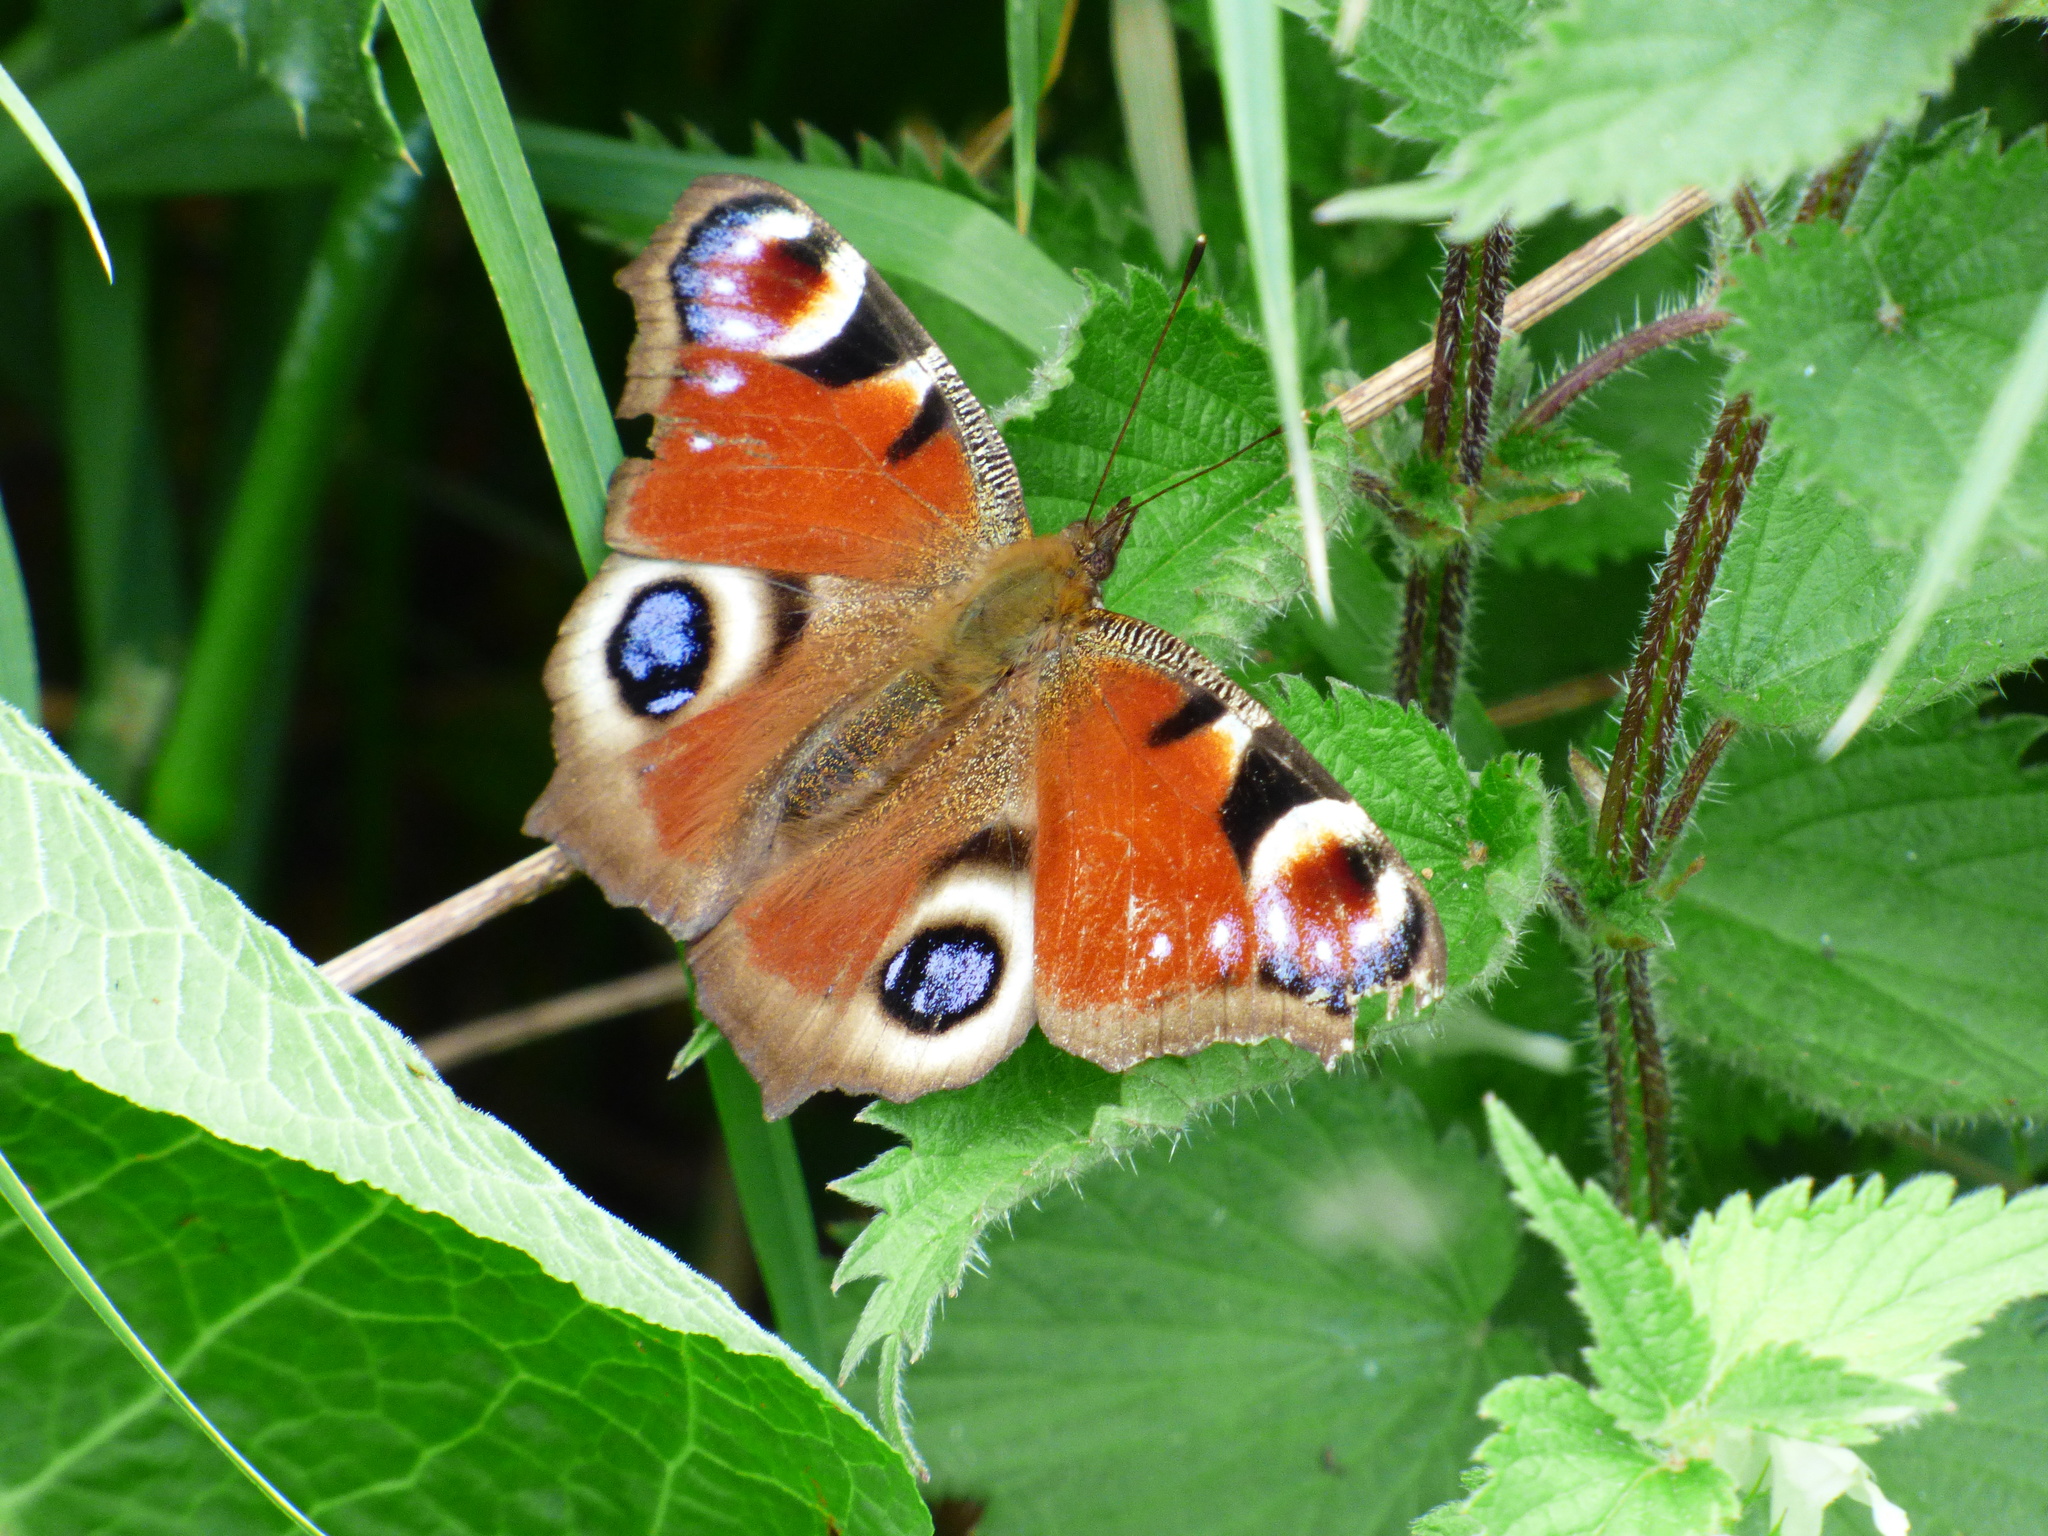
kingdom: Animalia
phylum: Arthropoda
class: Insecta
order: Lepidoptera
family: Nymphalidae
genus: Aglais
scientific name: Aglais io
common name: Peacock
